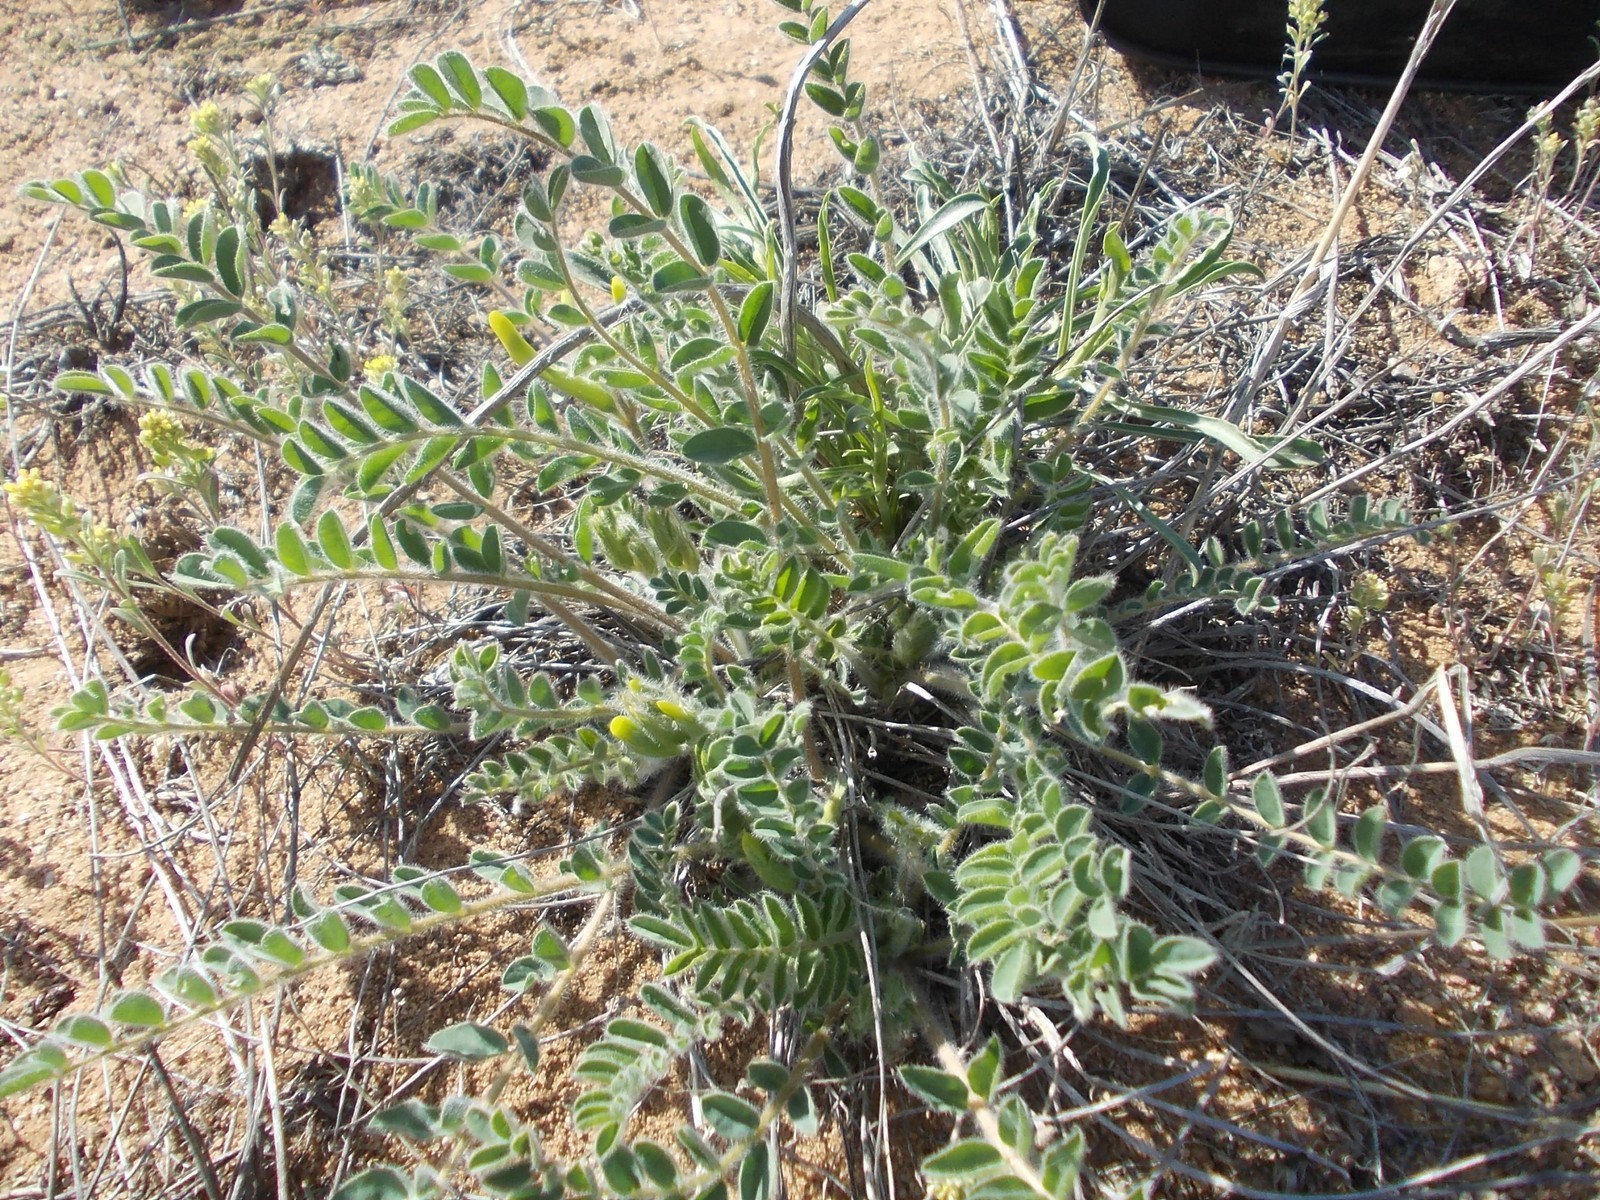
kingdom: Plantae
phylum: Tracheophyta
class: Magnoliopsida
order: Fabales
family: Fabaceae
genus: Astragalus
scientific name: Astragalus longipetalus
